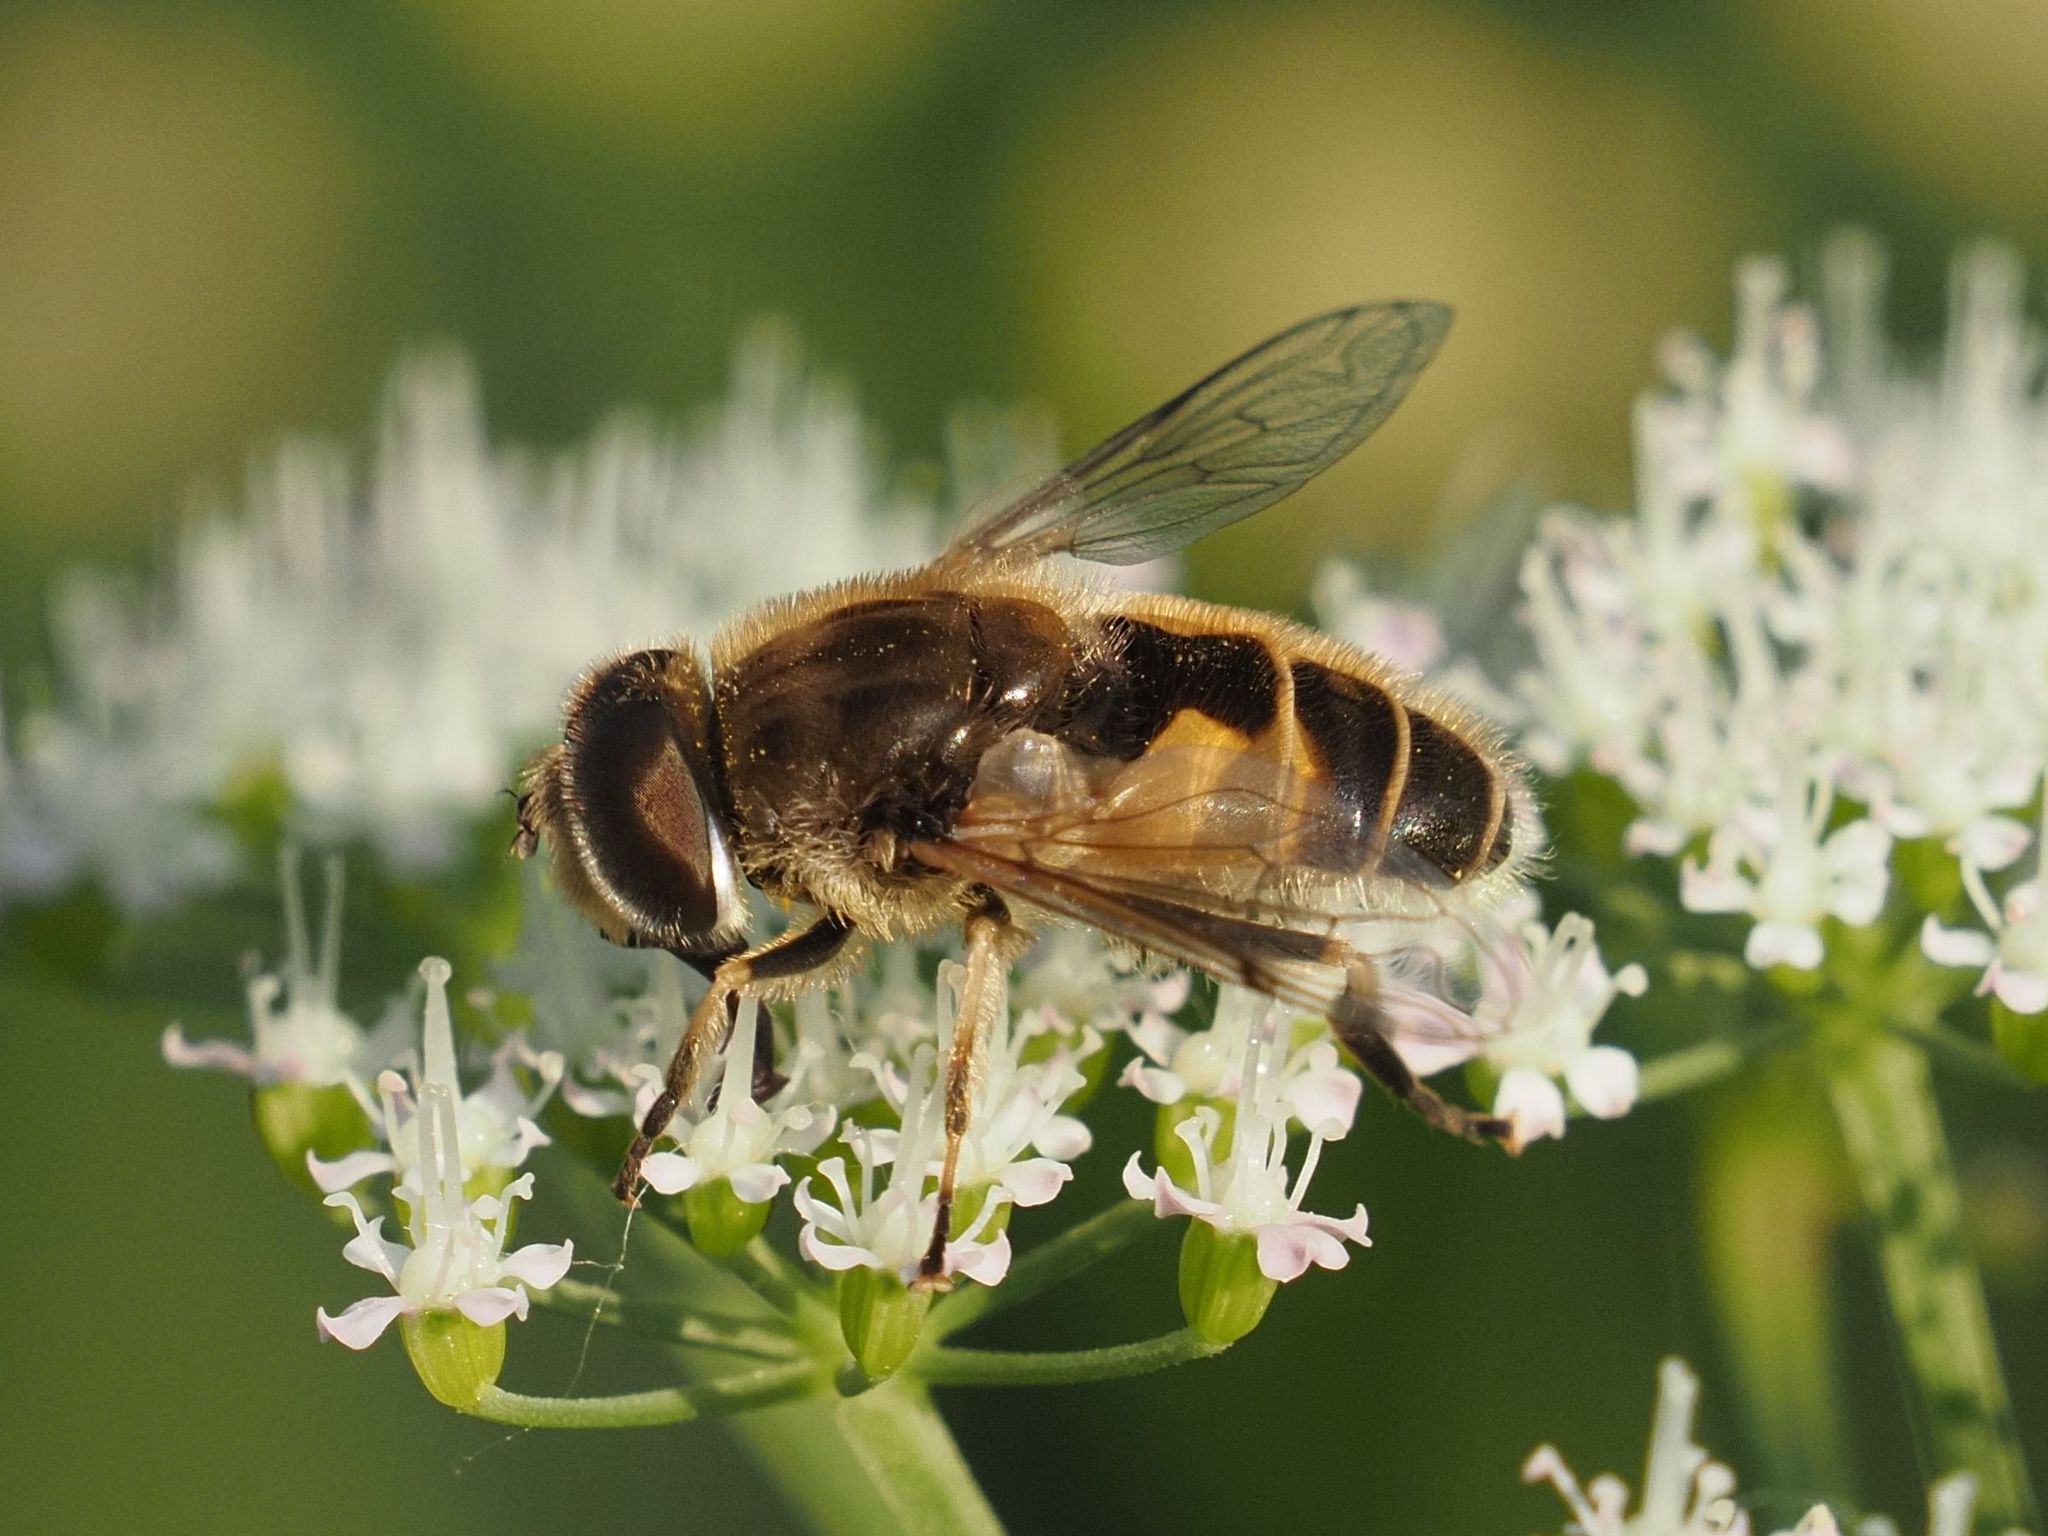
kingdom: Animalia
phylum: Arthropoda
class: Insecta
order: Diptera
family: Syrphidae
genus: Eristalis
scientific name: Eristalis arbustorum
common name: Hover fly
